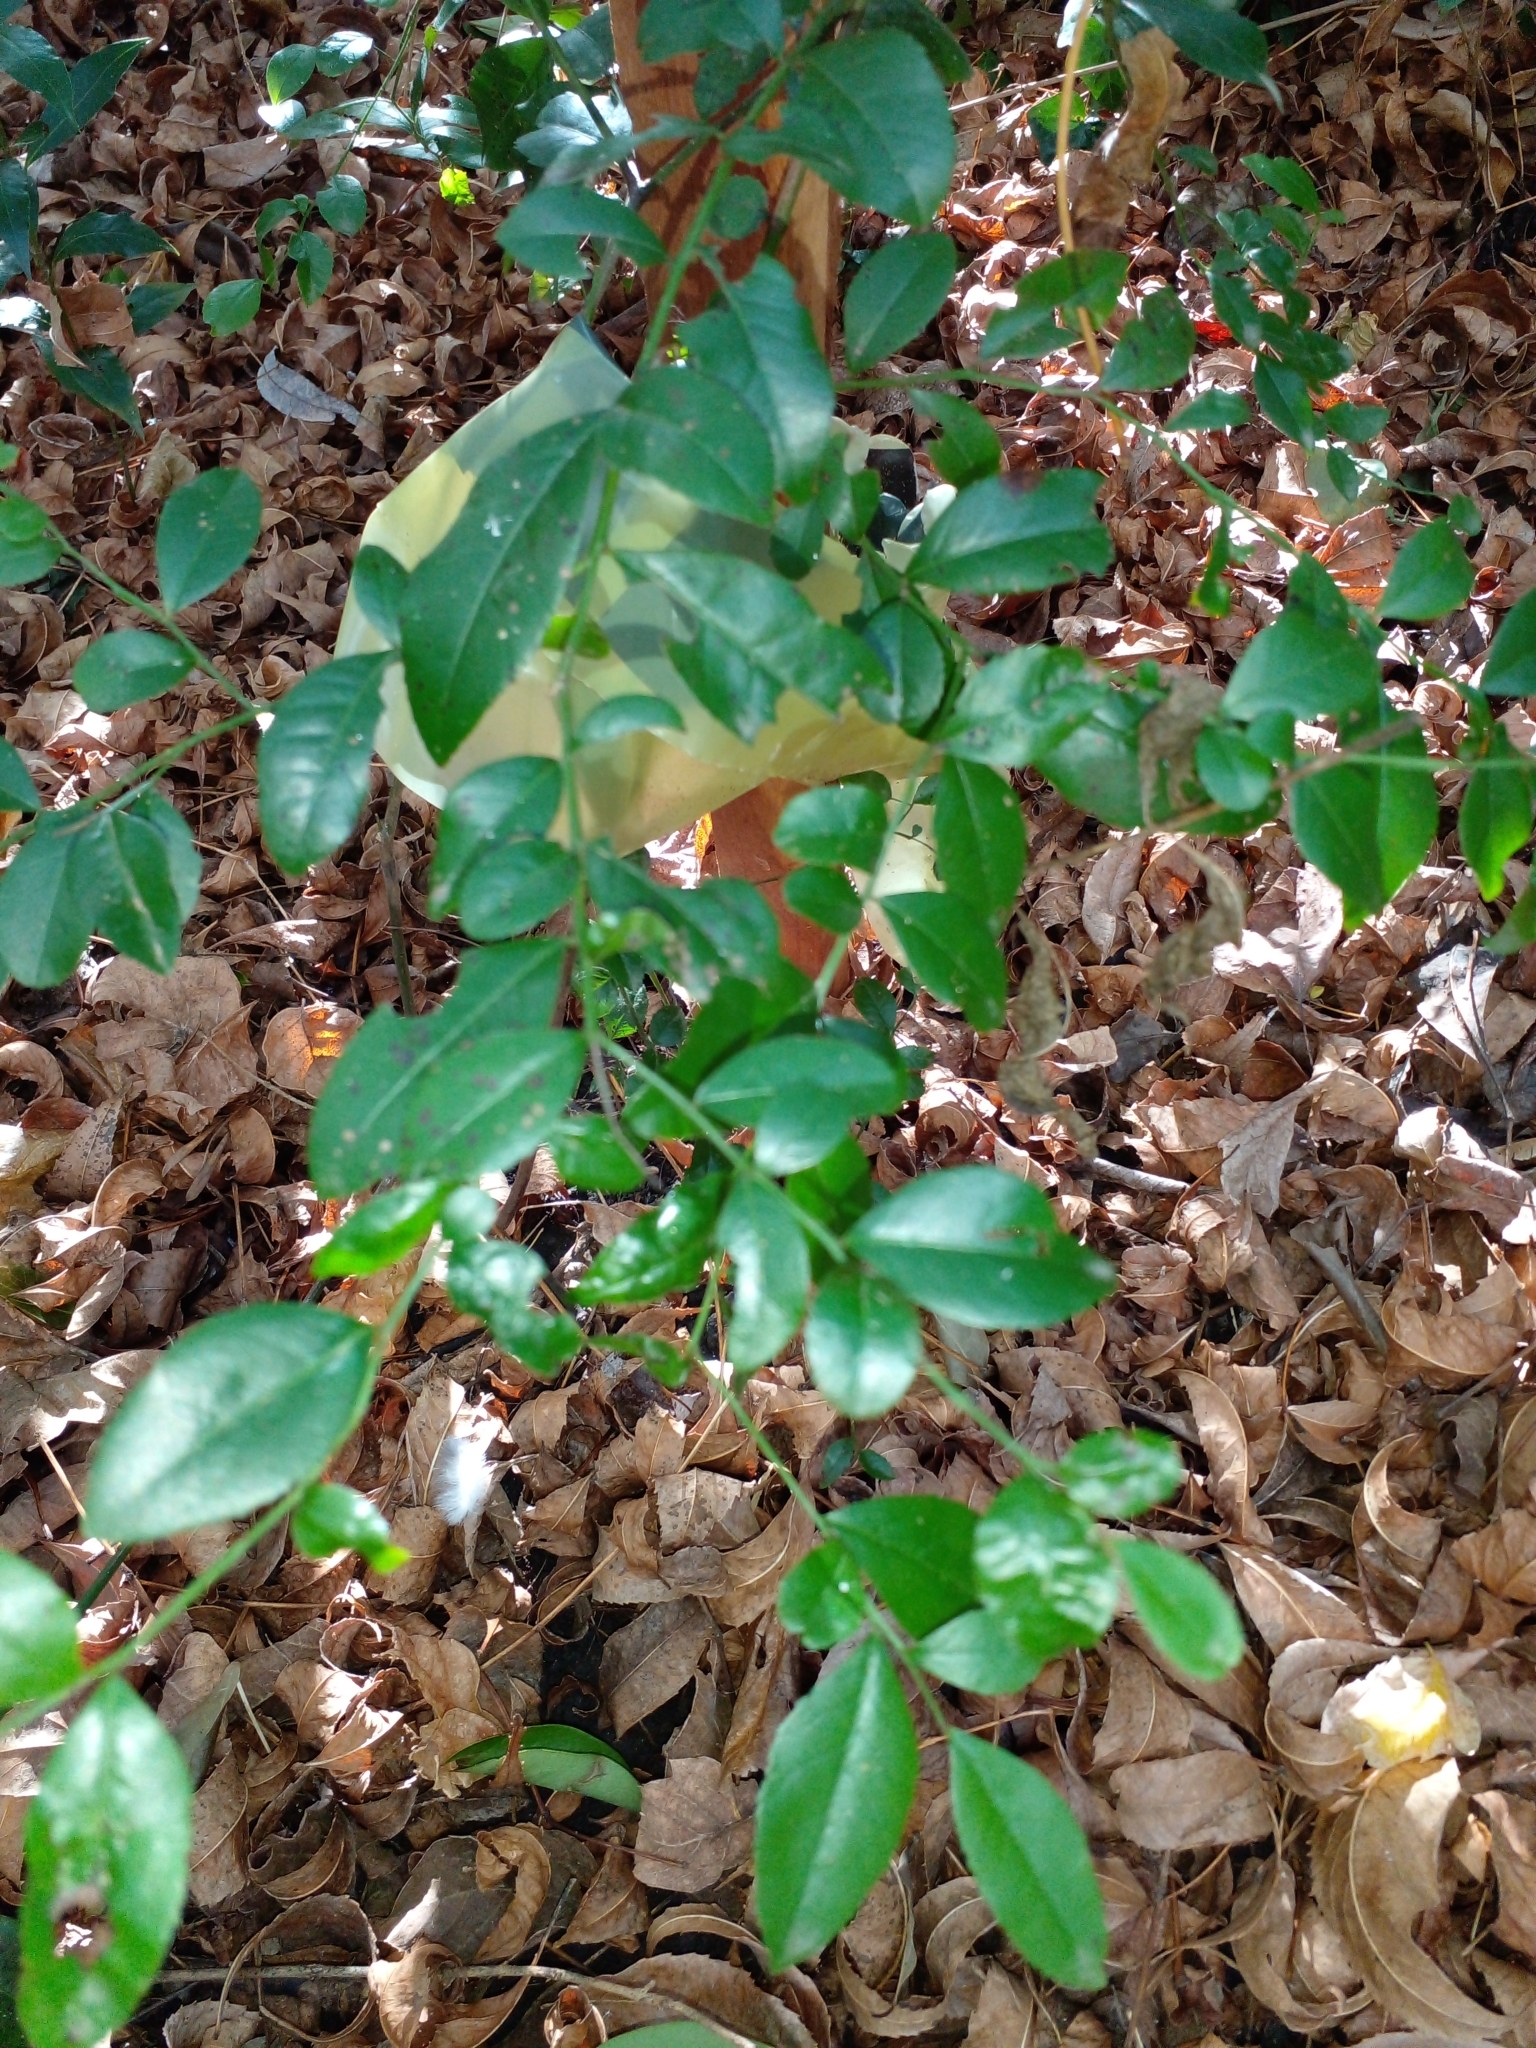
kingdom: Plantae
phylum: Tracheophyta
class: Magnoliopsida
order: Rosales
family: Rhamnaceae
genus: Scutia
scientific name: Scutia buxifolia
